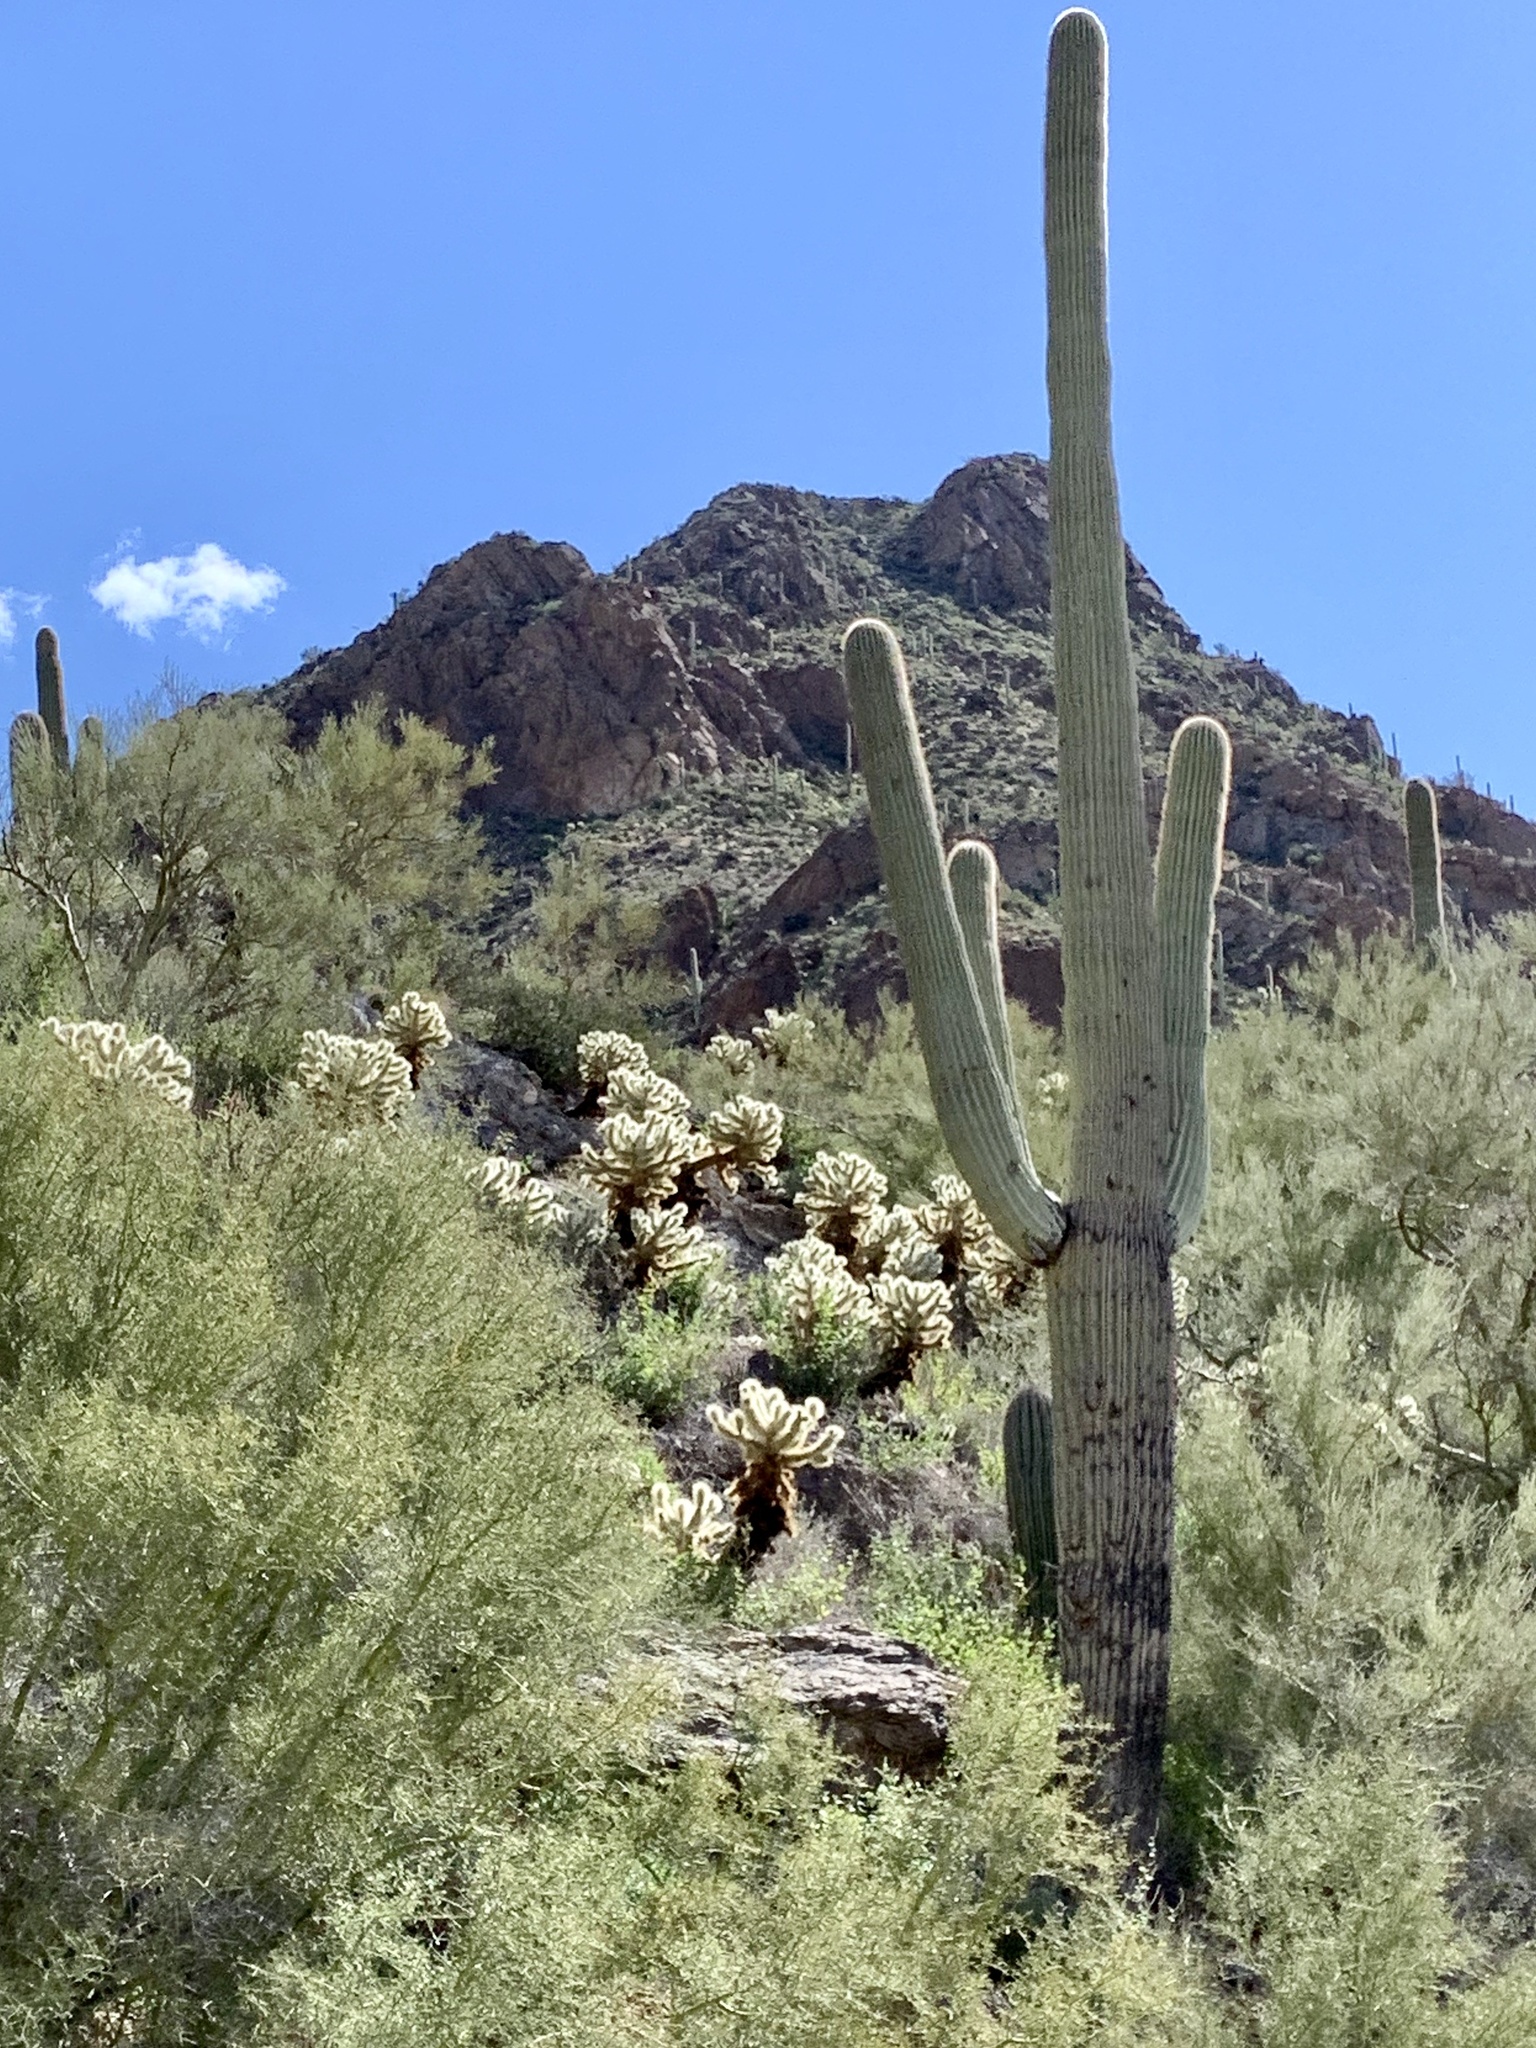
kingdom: Plantae
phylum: Tracheophyta
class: Magnoliopsida
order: Caryophyllales
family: Cactaceae
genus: Carnegiea
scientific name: Carnegiea gigantea
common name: Saguaro
